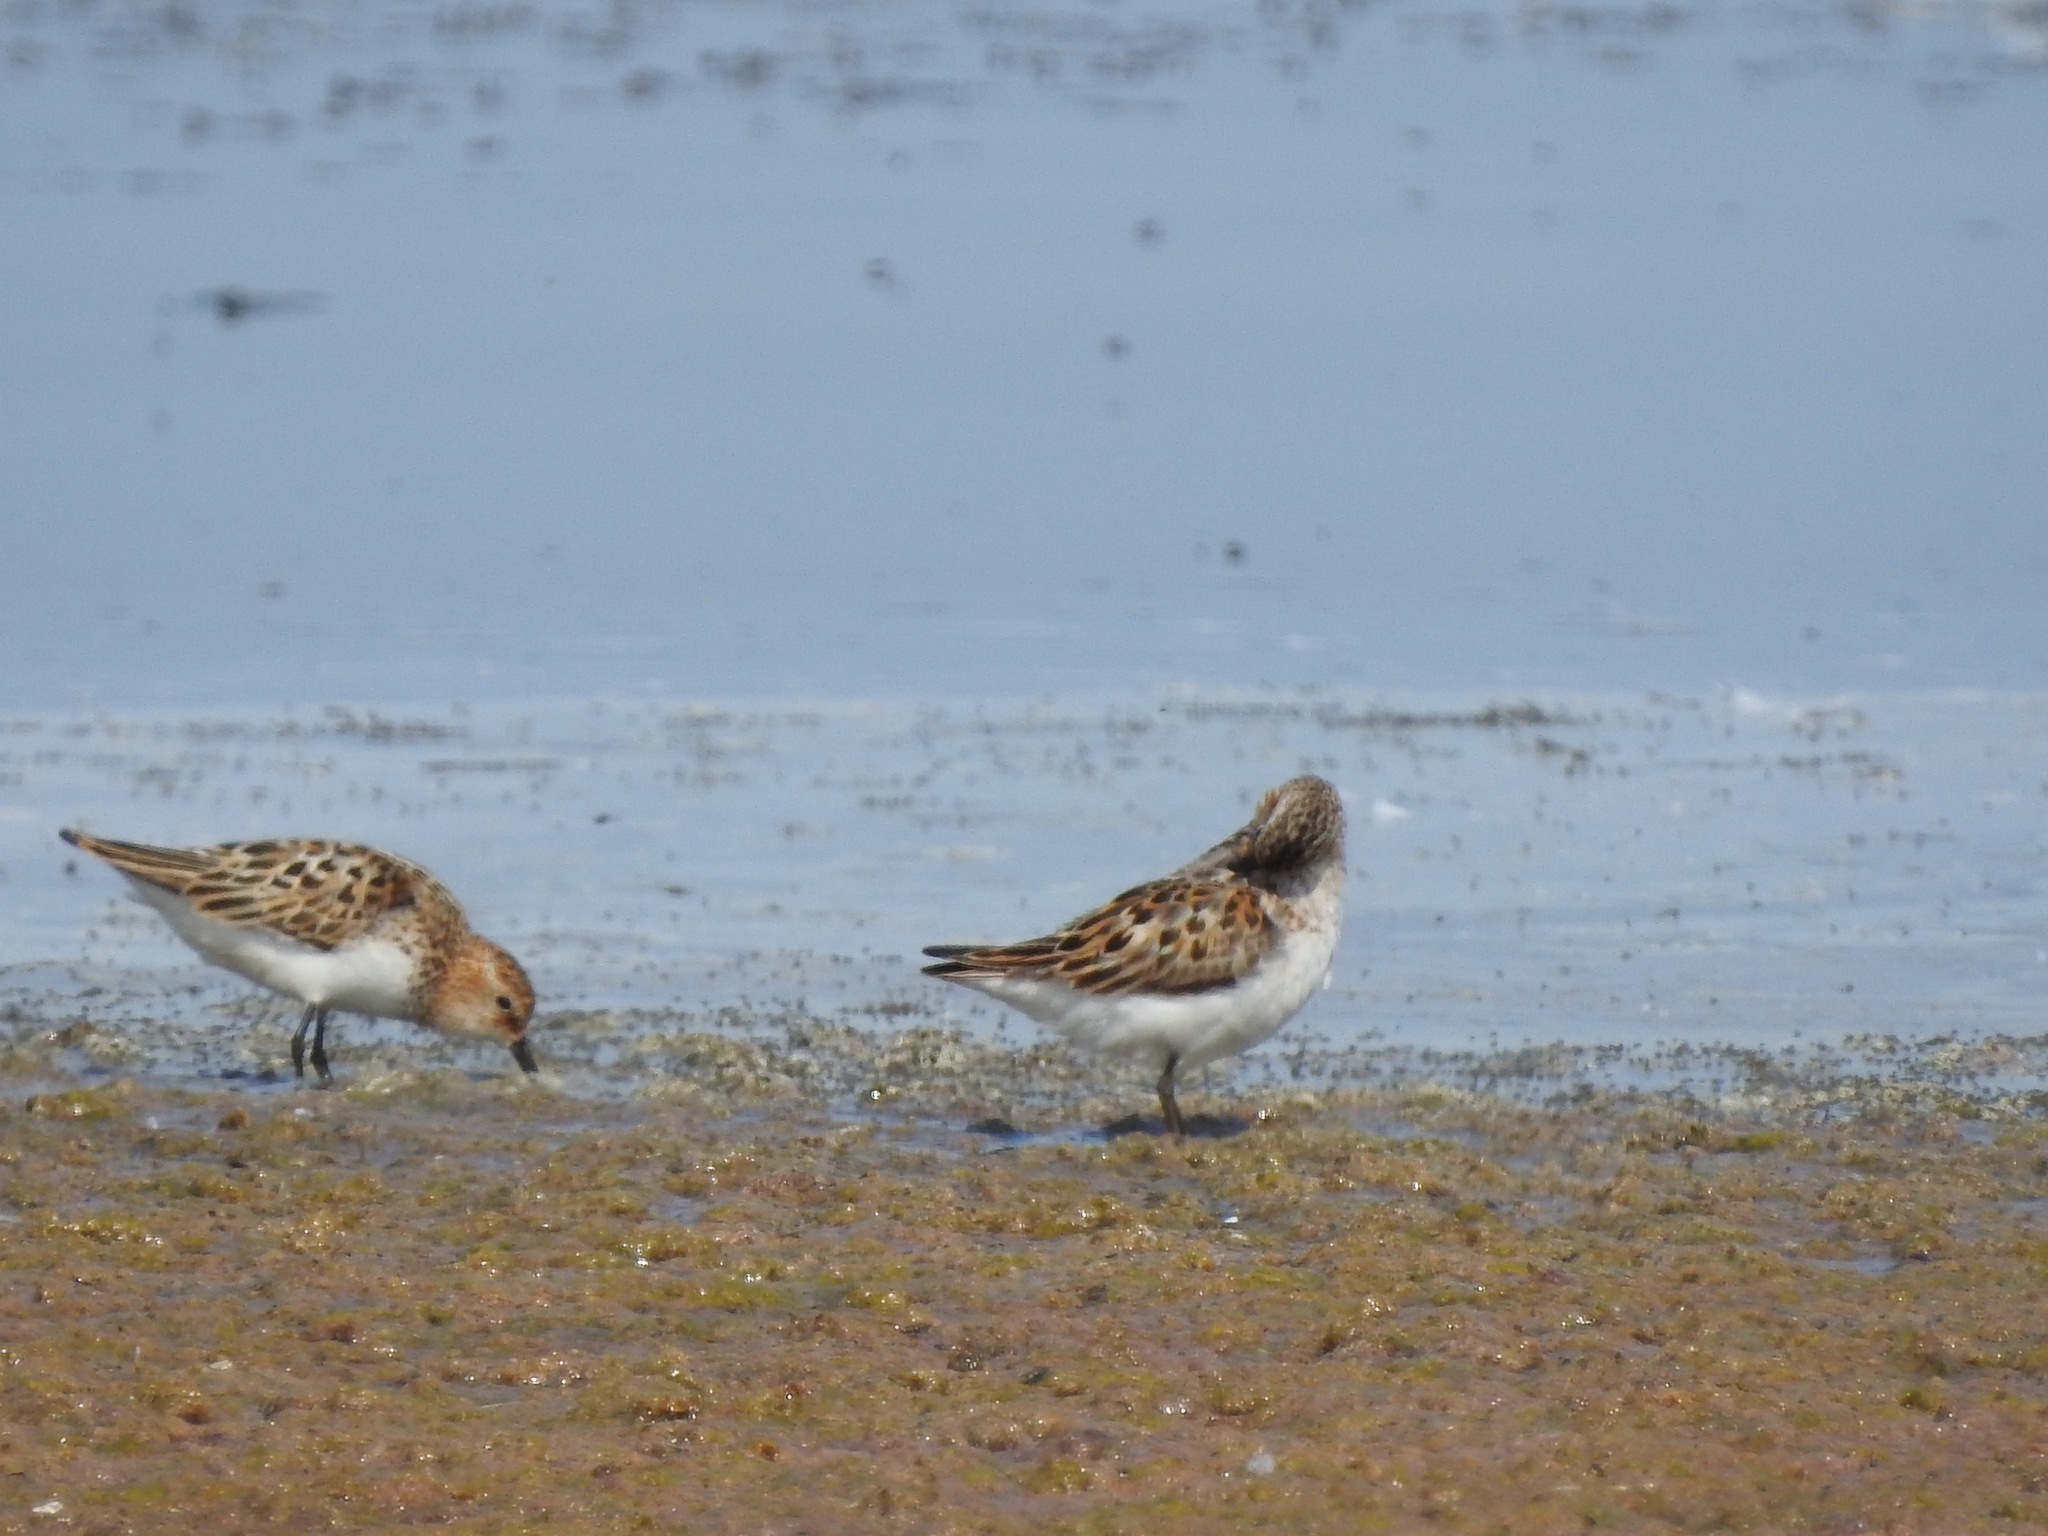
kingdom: Animalia
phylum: Chordata
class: Aves
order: Charadriiformes
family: Scolopacidae
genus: Calidris
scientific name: Calidris minuta
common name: Little stint
